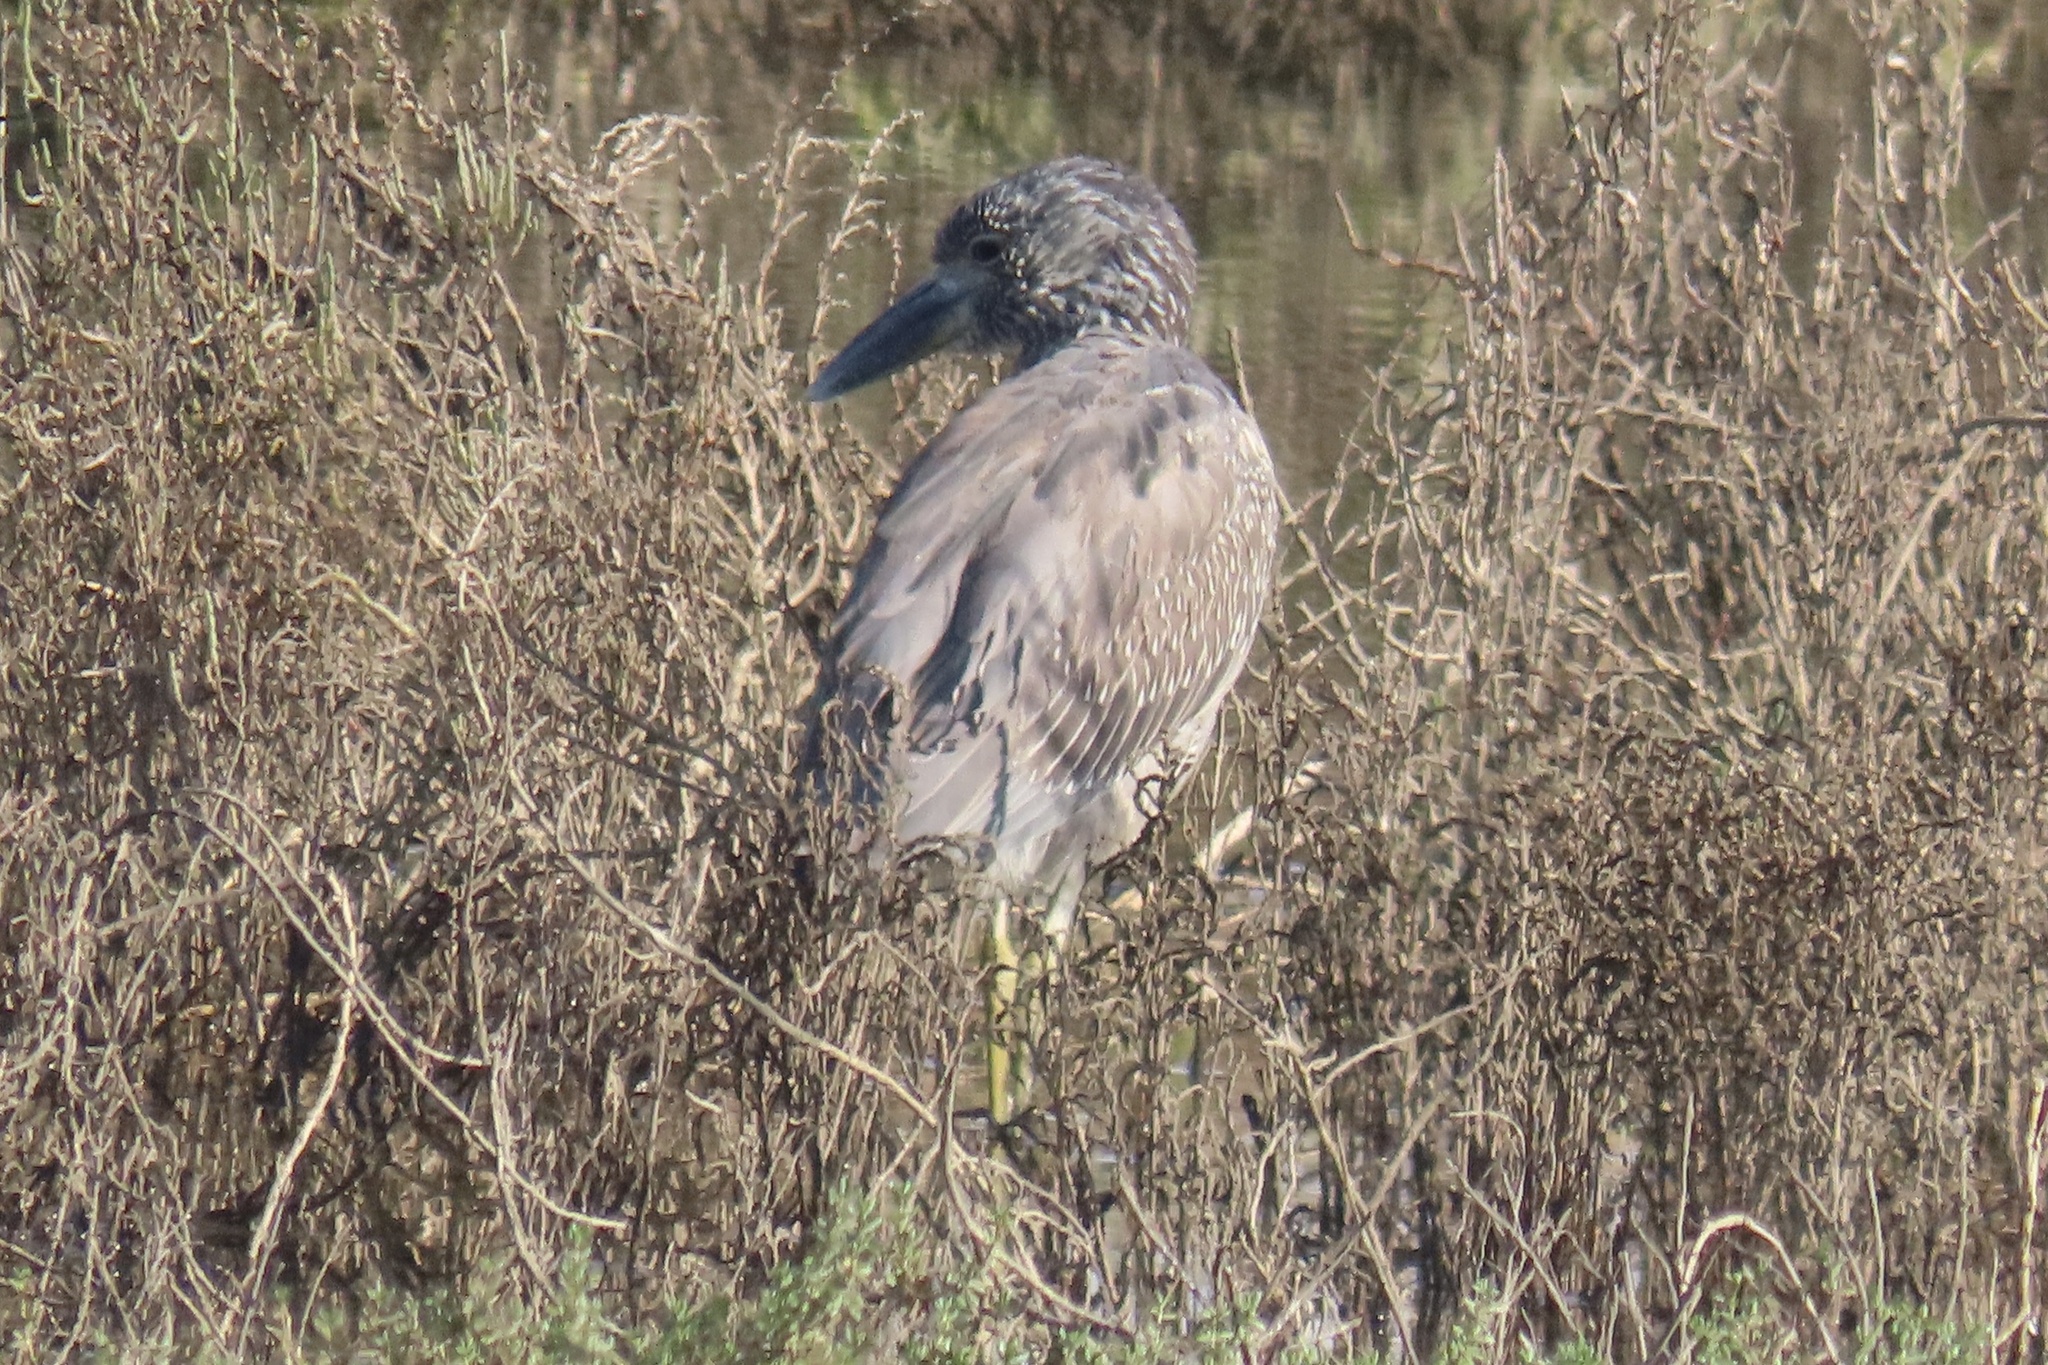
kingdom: Animalia
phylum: Chordata
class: Aves
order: Pelecaniformes
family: Ardeidae
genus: Nyctanassa
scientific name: Nyctanassa violacea
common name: Yellow-crowned night heron
